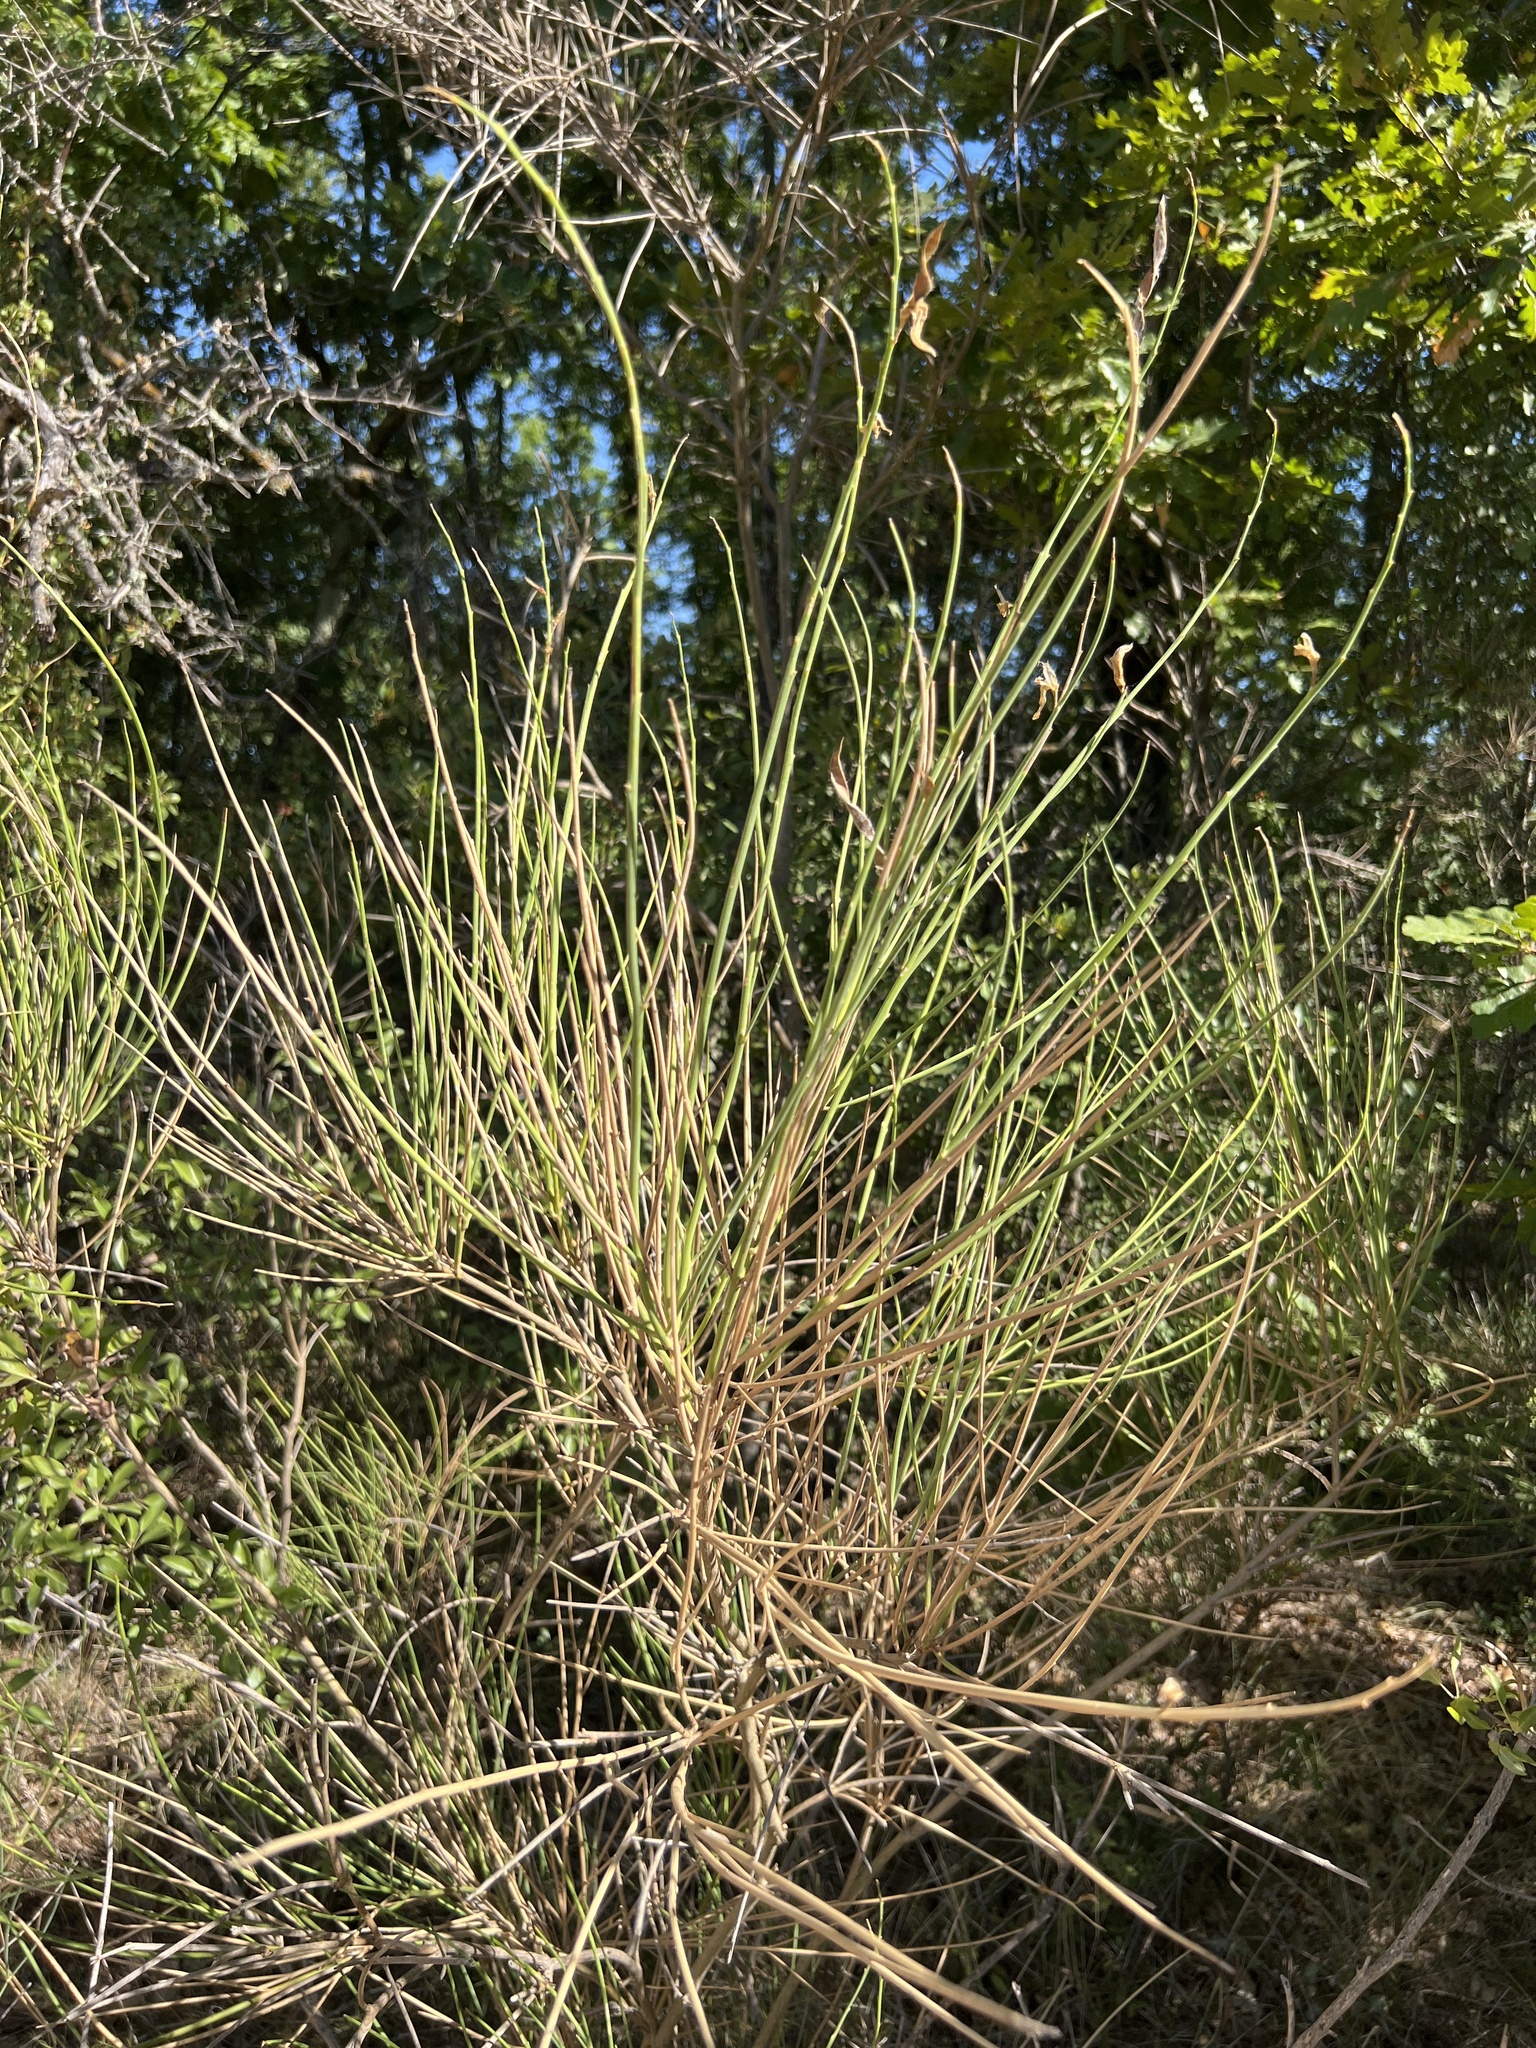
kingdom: Plantae
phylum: Tracheophyta
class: Magnoliopsida
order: Fabales
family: Fabaceae
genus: Spartium
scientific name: Spartium junceum
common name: Spanish broom
